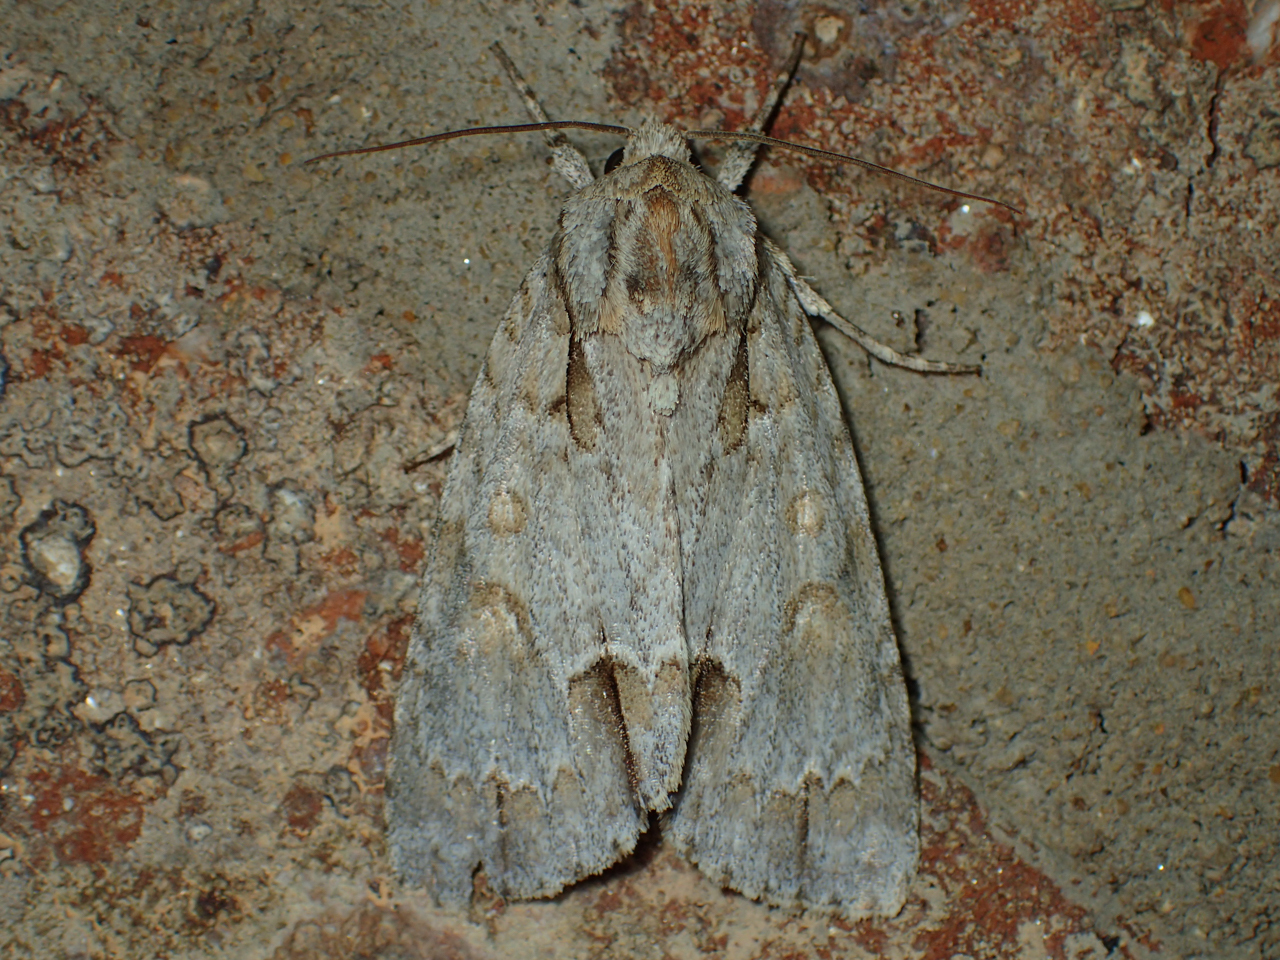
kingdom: Animalia
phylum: Arthropoda
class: Insecta
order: Lepidoptera
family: Noctuidae
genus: Acronicta
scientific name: Acronicta morula
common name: Ochre dagger
